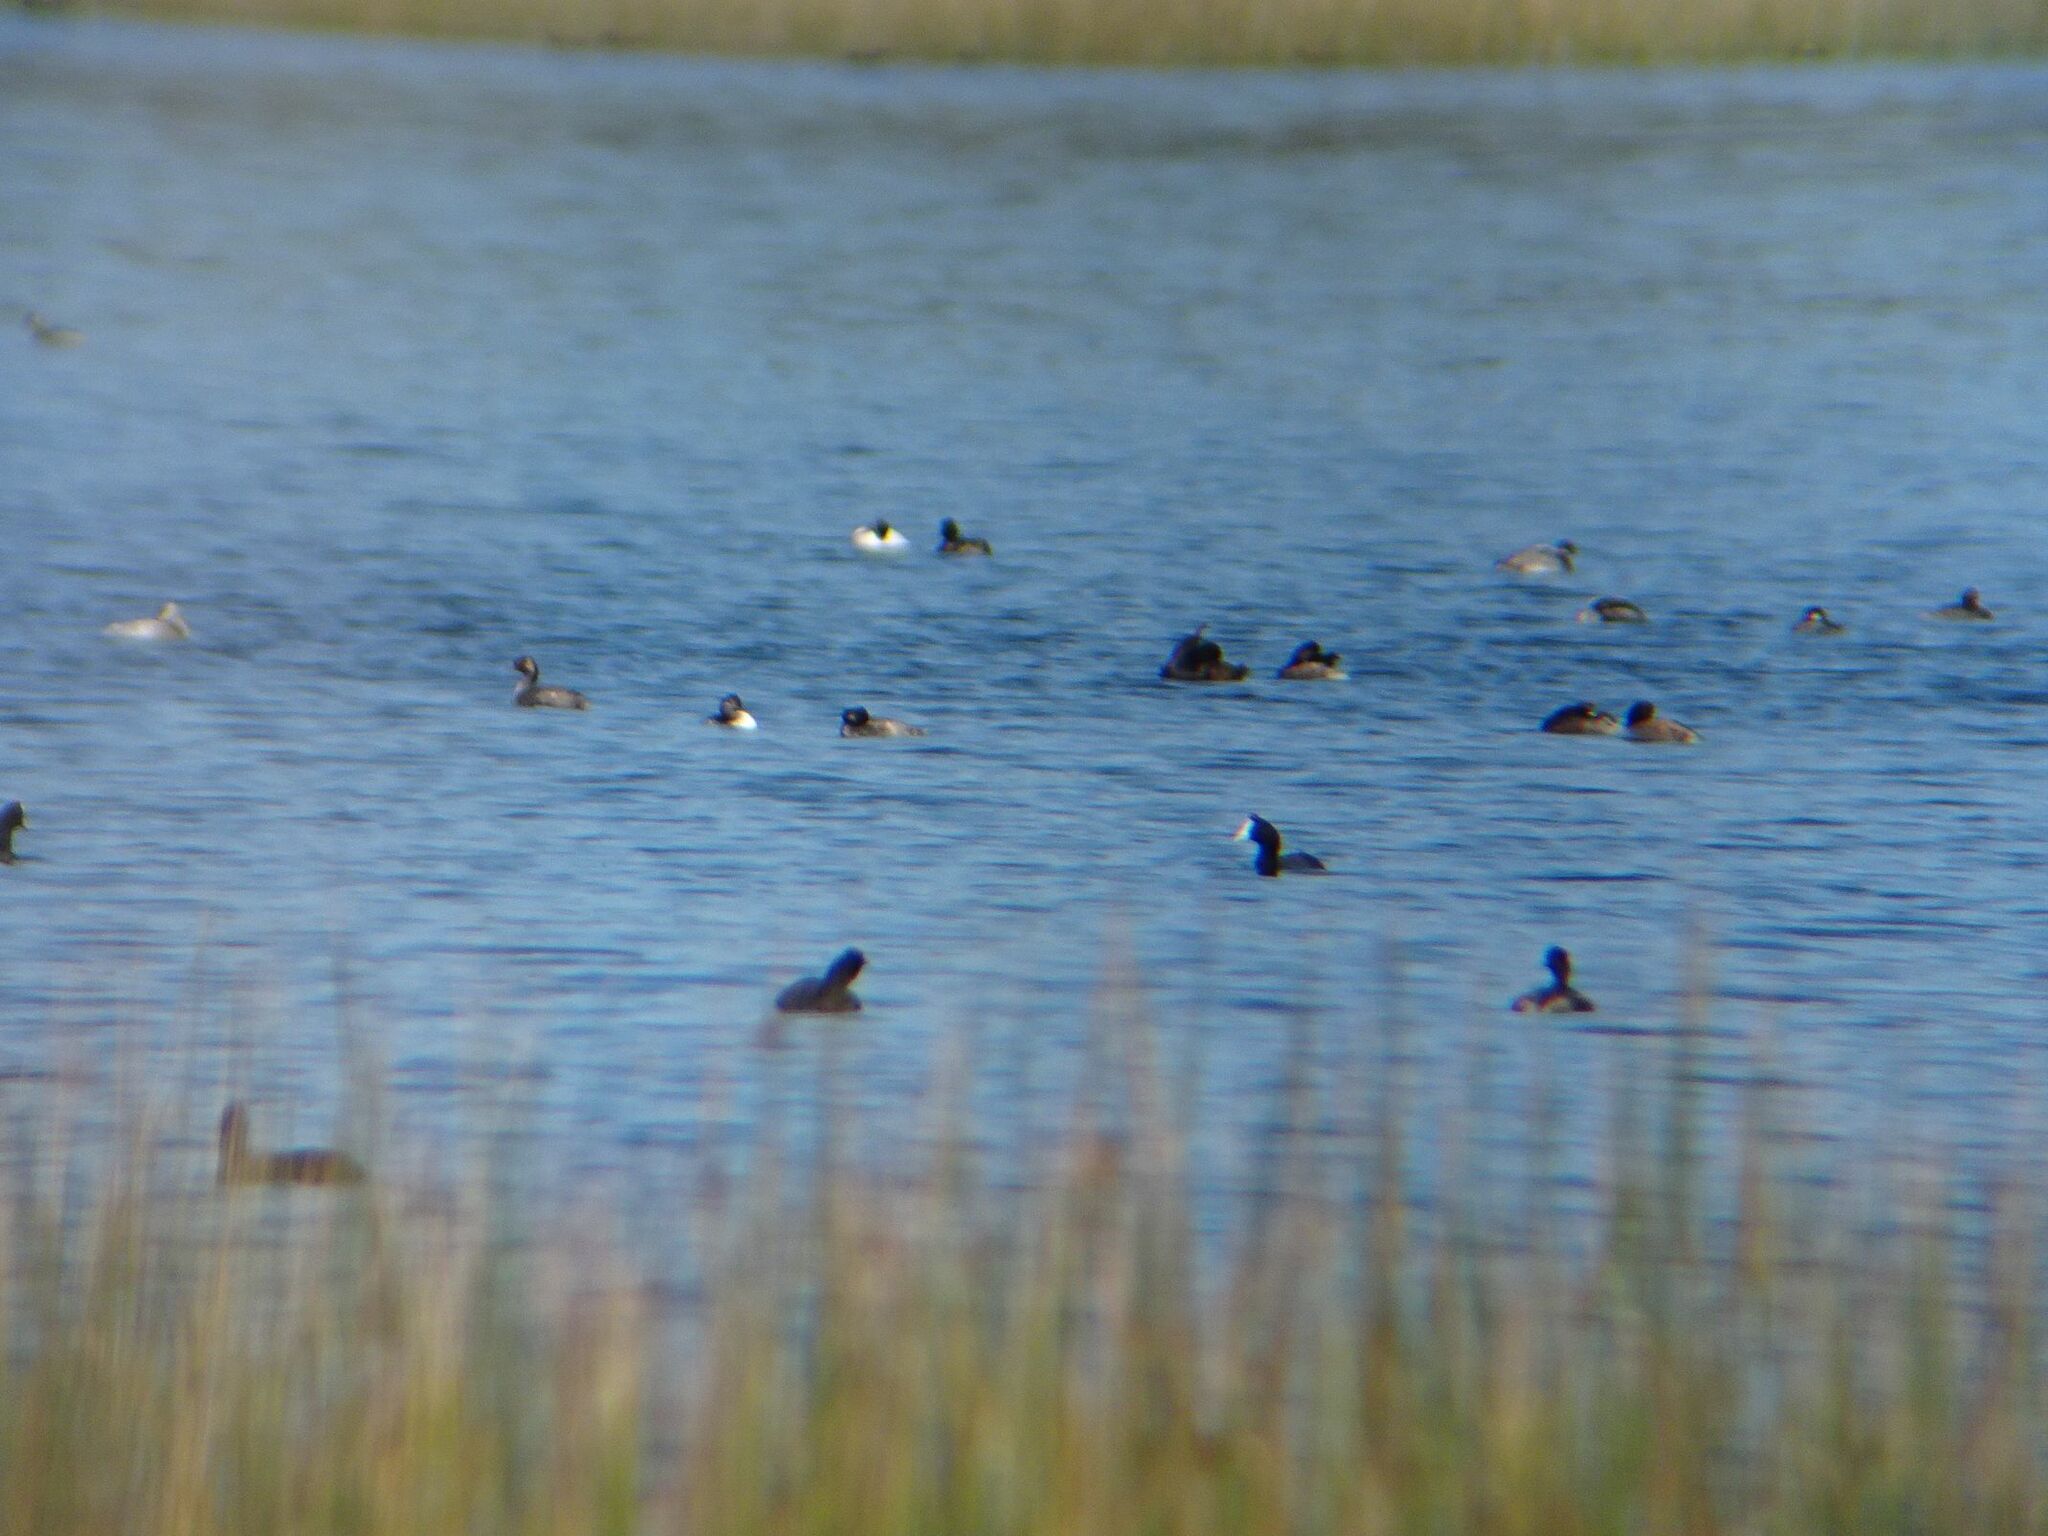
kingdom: Animalia
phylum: Chordata
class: Aves
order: Podicipediformes
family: Podicipedidae
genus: Podiceps
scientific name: Podiceps nigricollis
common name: Black-necked grebe
